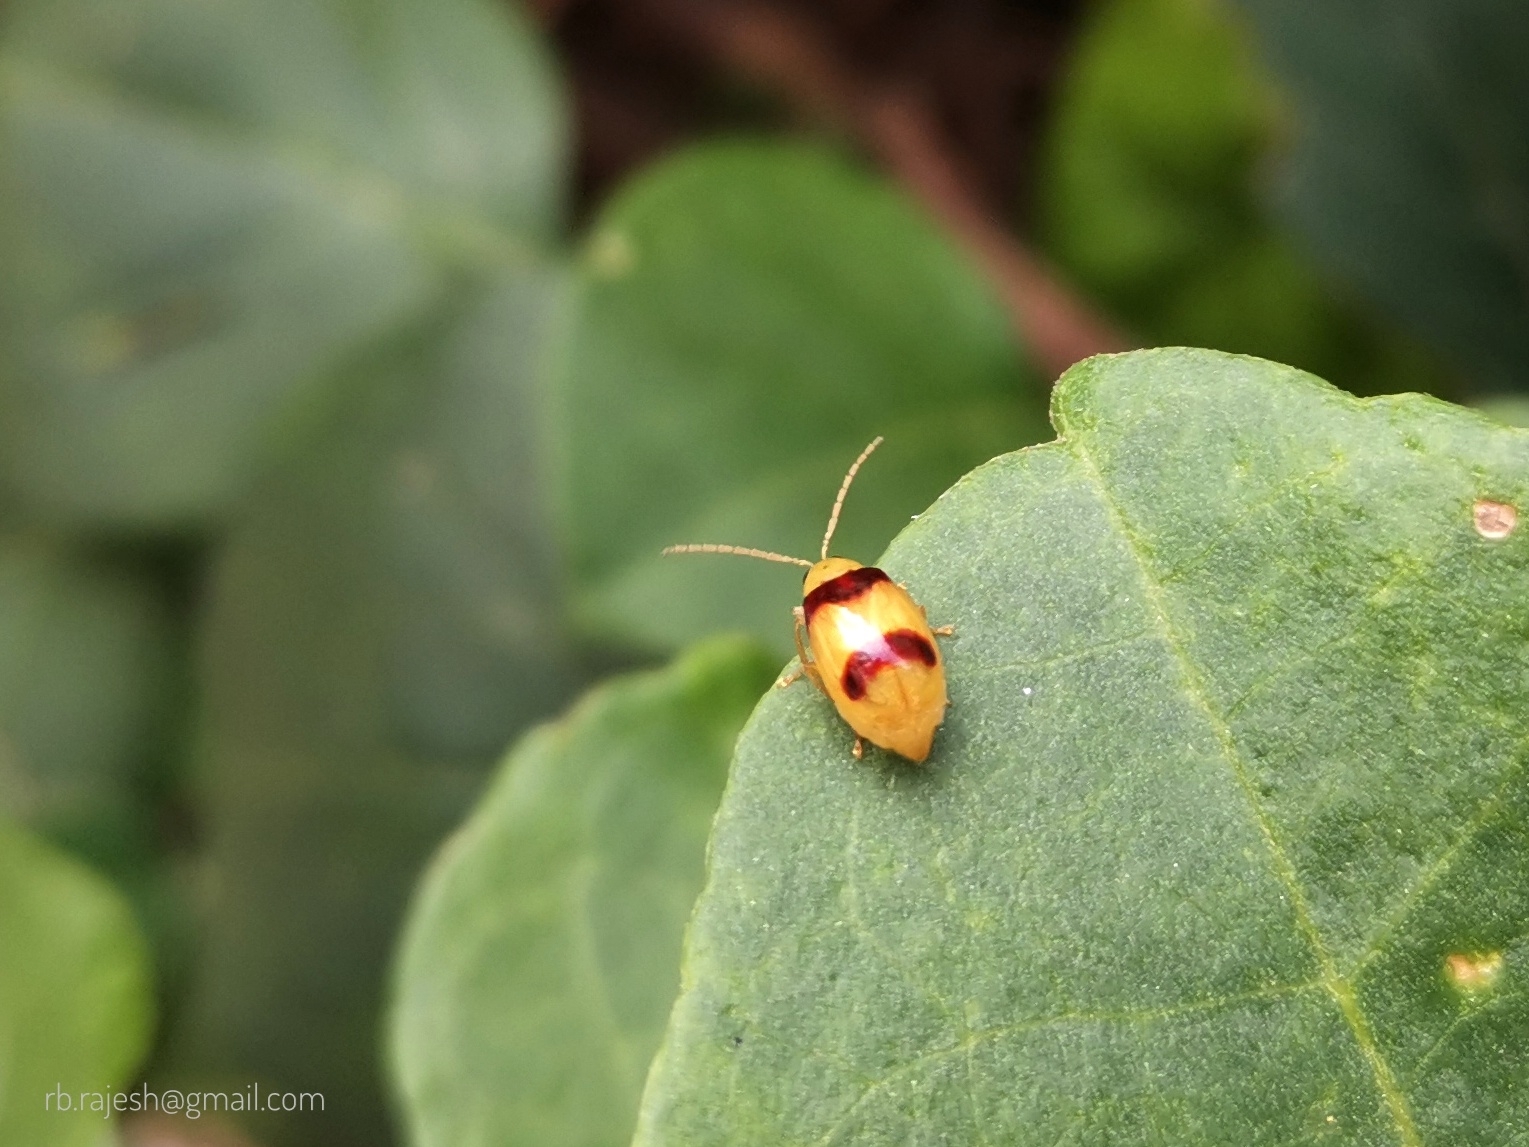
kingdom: Animalia
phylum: Arthropoda
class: Insecta
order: Coleoptera
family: Chrysomelidae
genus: Monolepta
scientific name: Monolepta
